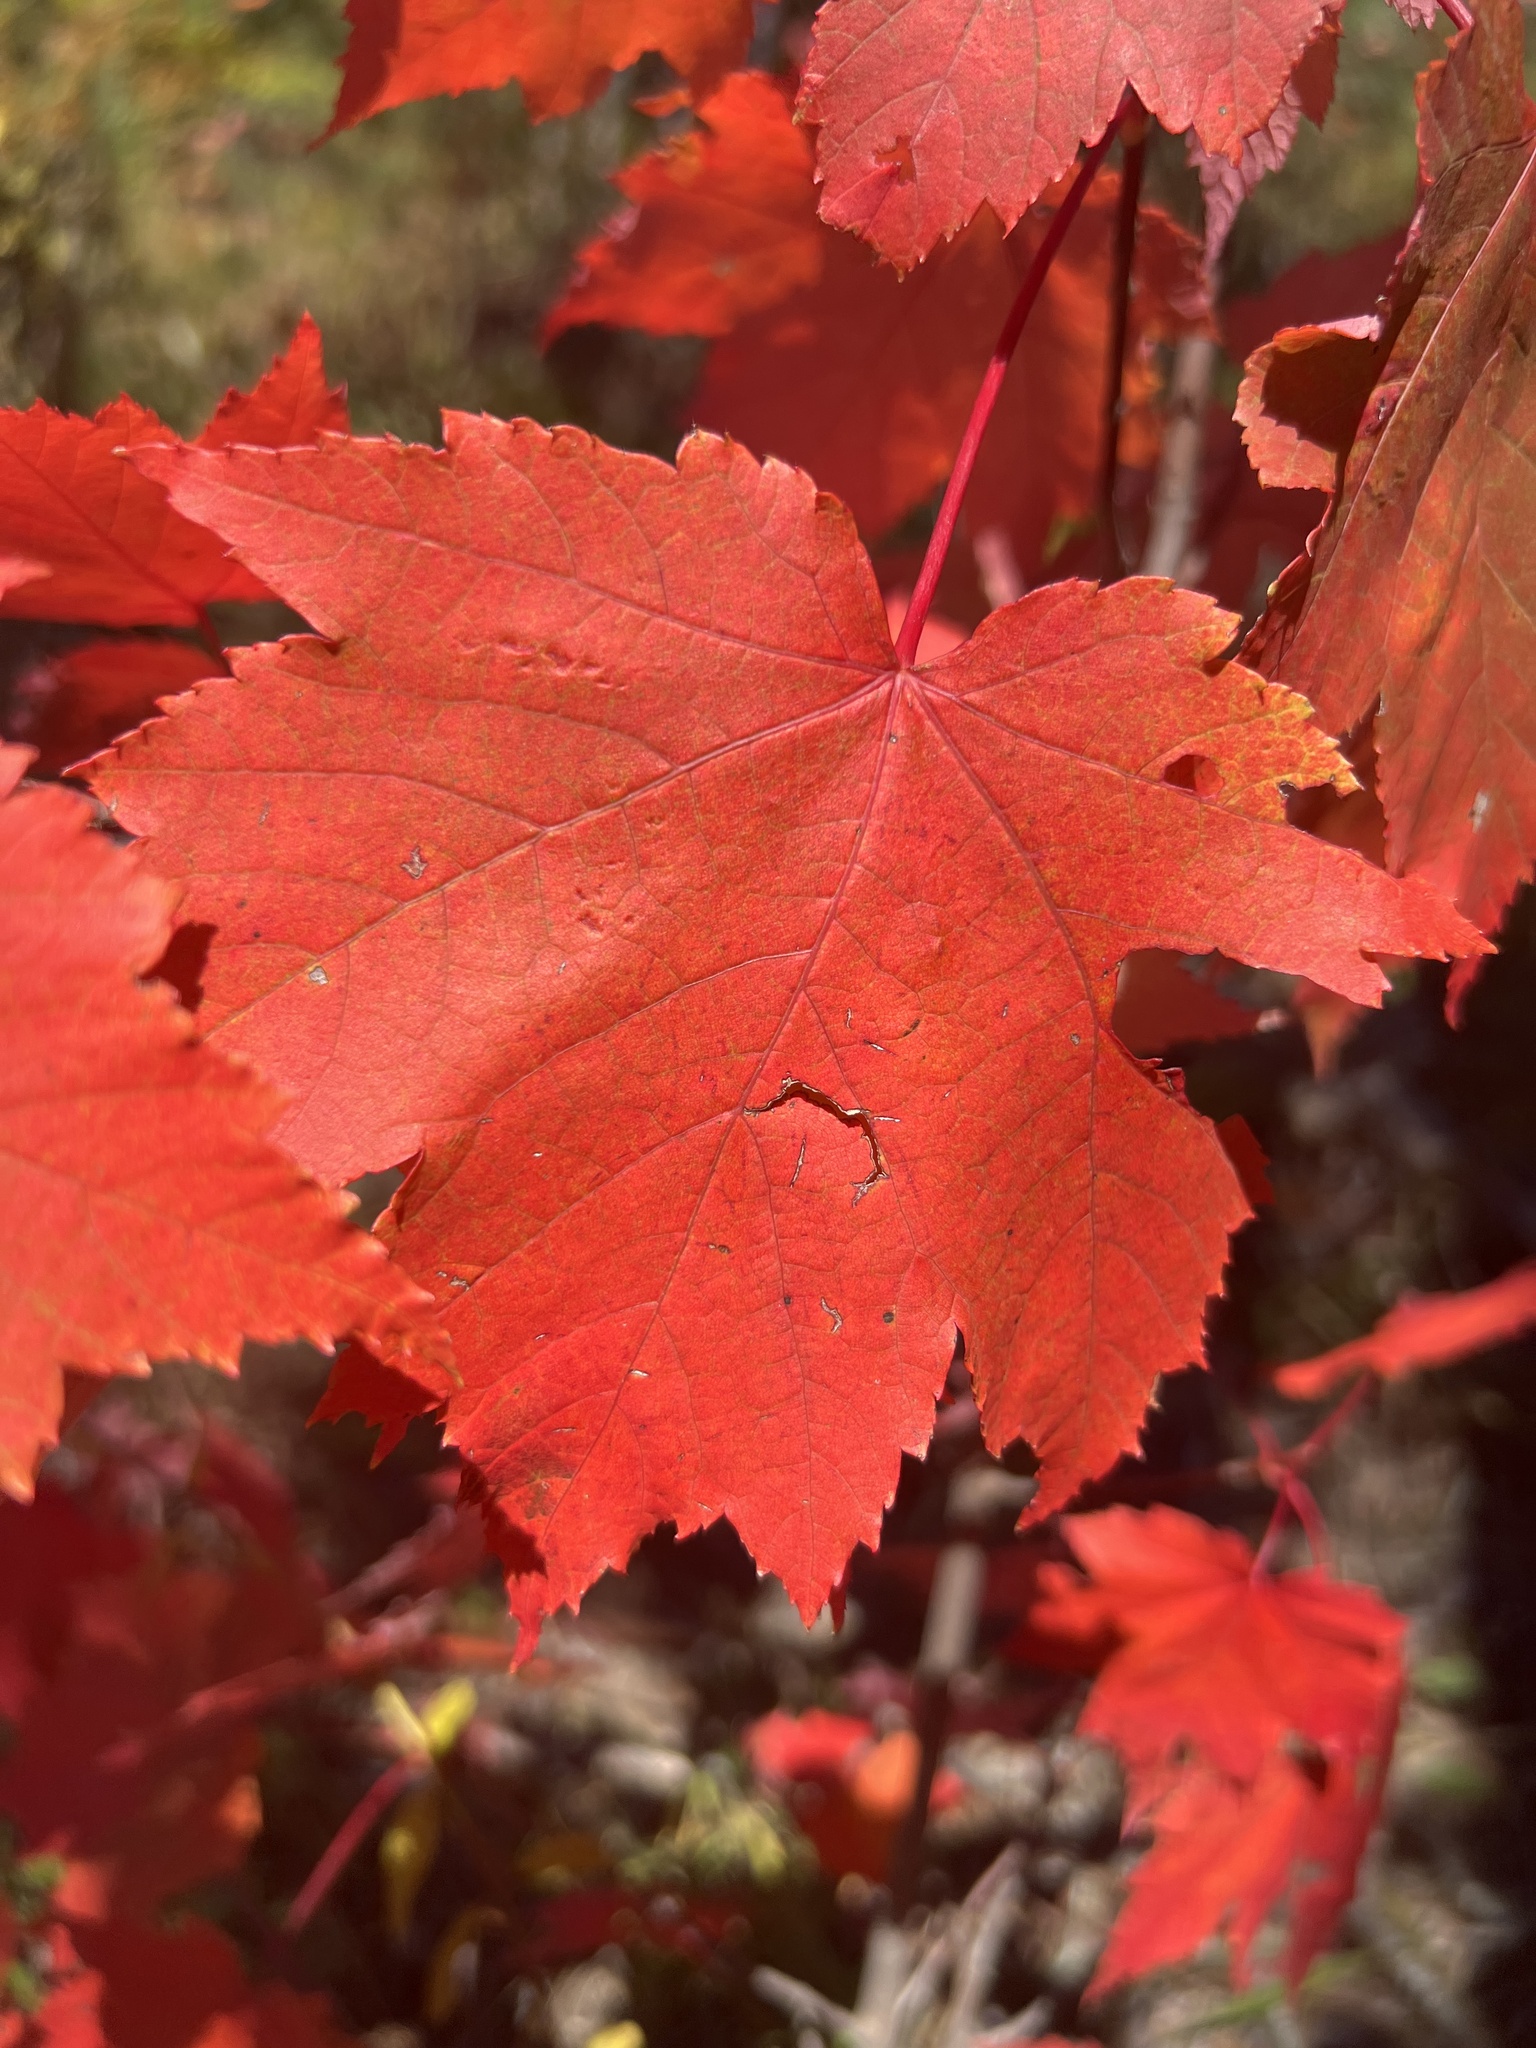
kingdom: Plantae
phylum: Tracheophyta
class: Magnoliopsida
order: Sapindales
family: Sapindaceae
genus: Acer
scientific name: Acer rubrum
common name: Red maple
